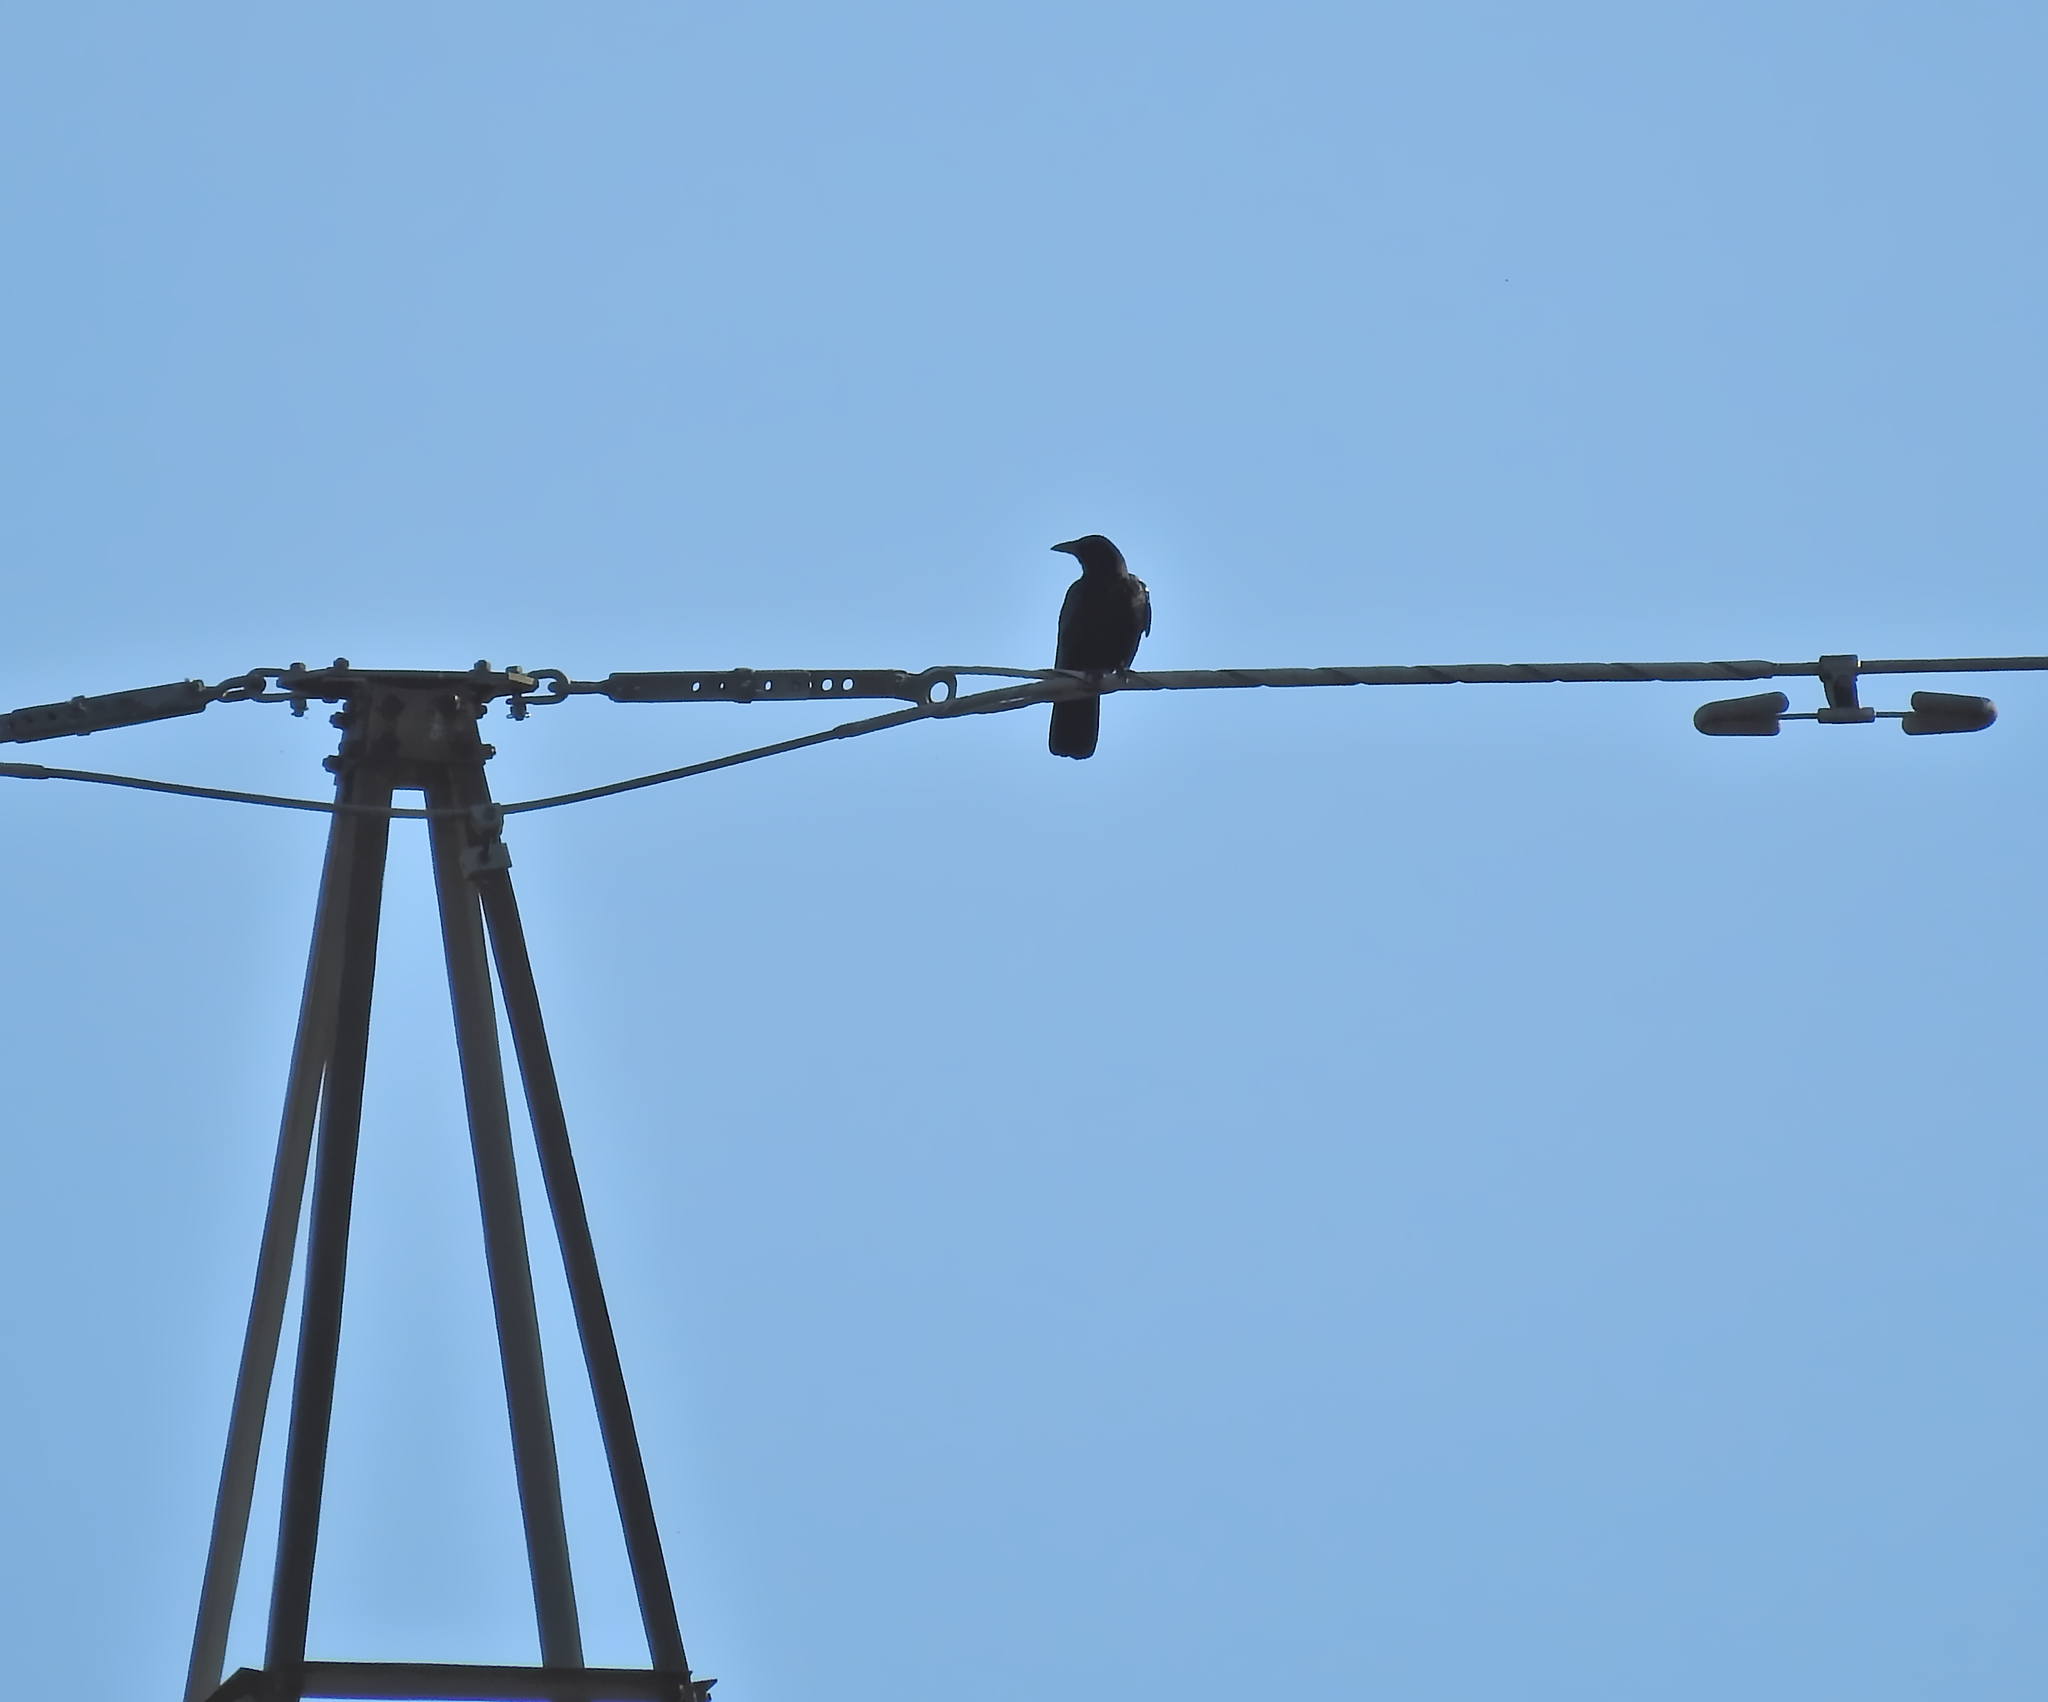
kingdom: Animalia
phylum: Chordata
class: Aves
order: Passeriformes
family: Corvidae
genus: Corvus
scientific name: Corvus corone
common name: Carrion crow
